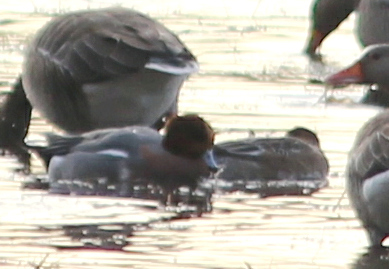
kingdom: Animalia
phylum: Chordata
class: Aves
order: Anseriformes
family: Anatidae
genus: Mareca
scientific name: Mareca penelope
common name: Eurasian wigeon
